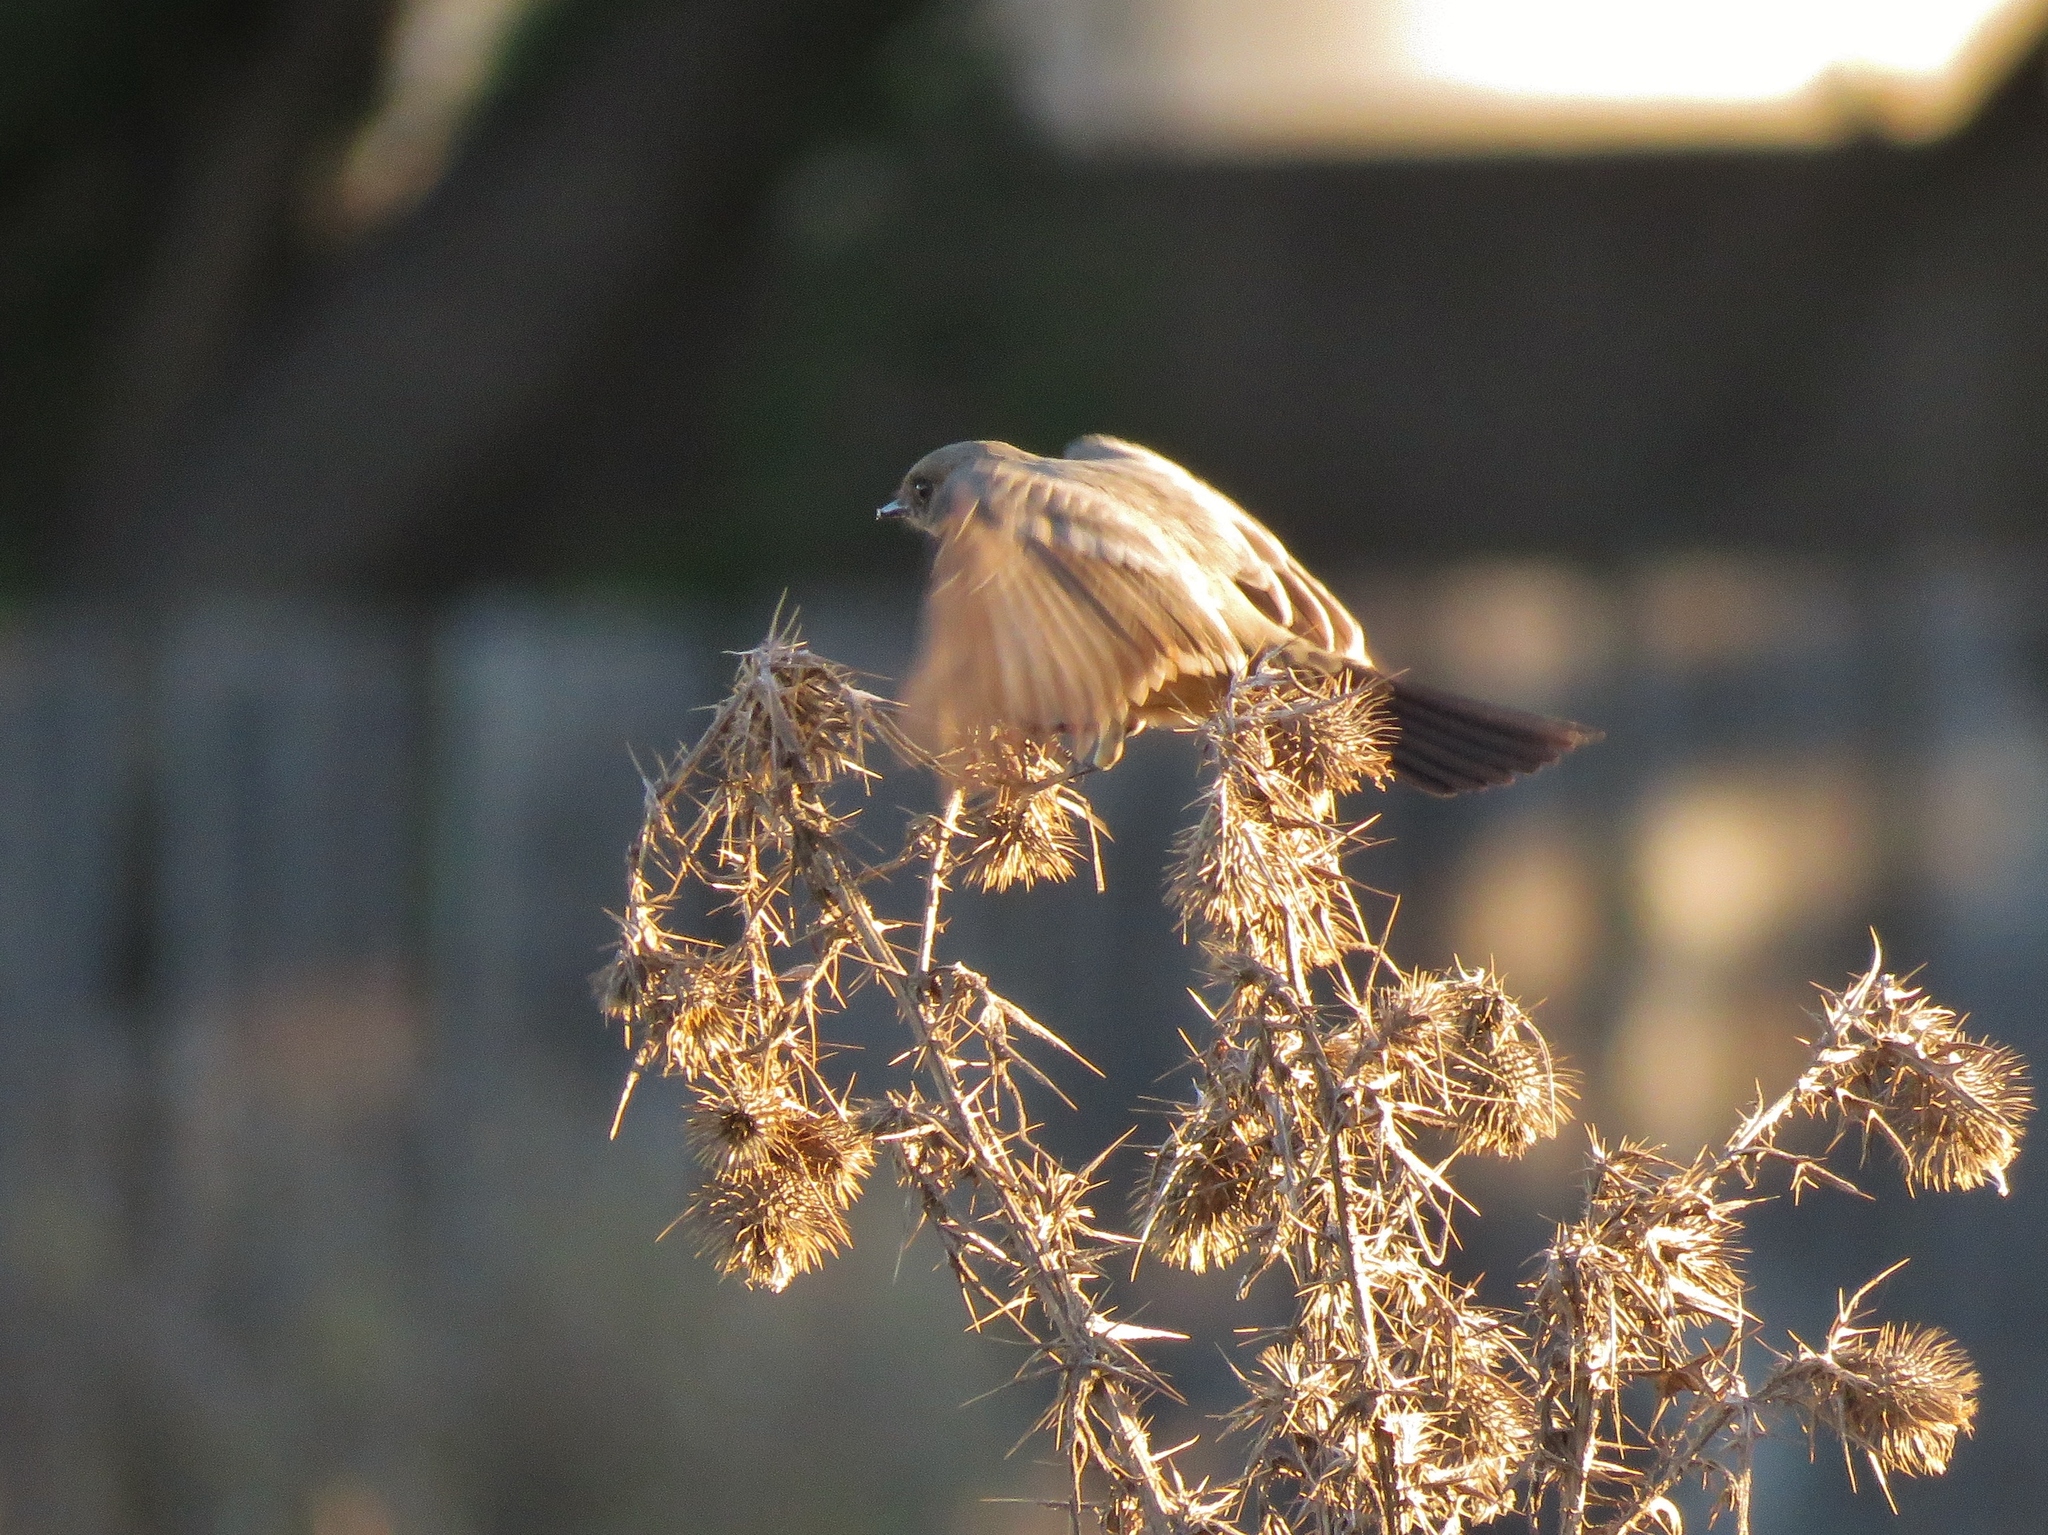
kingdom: Animalia
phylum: Chordata
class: Aves
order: Passeriformes
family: Tyrannidae
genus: Sayornis
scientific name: Sayornis saya
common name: Say's phoebe
